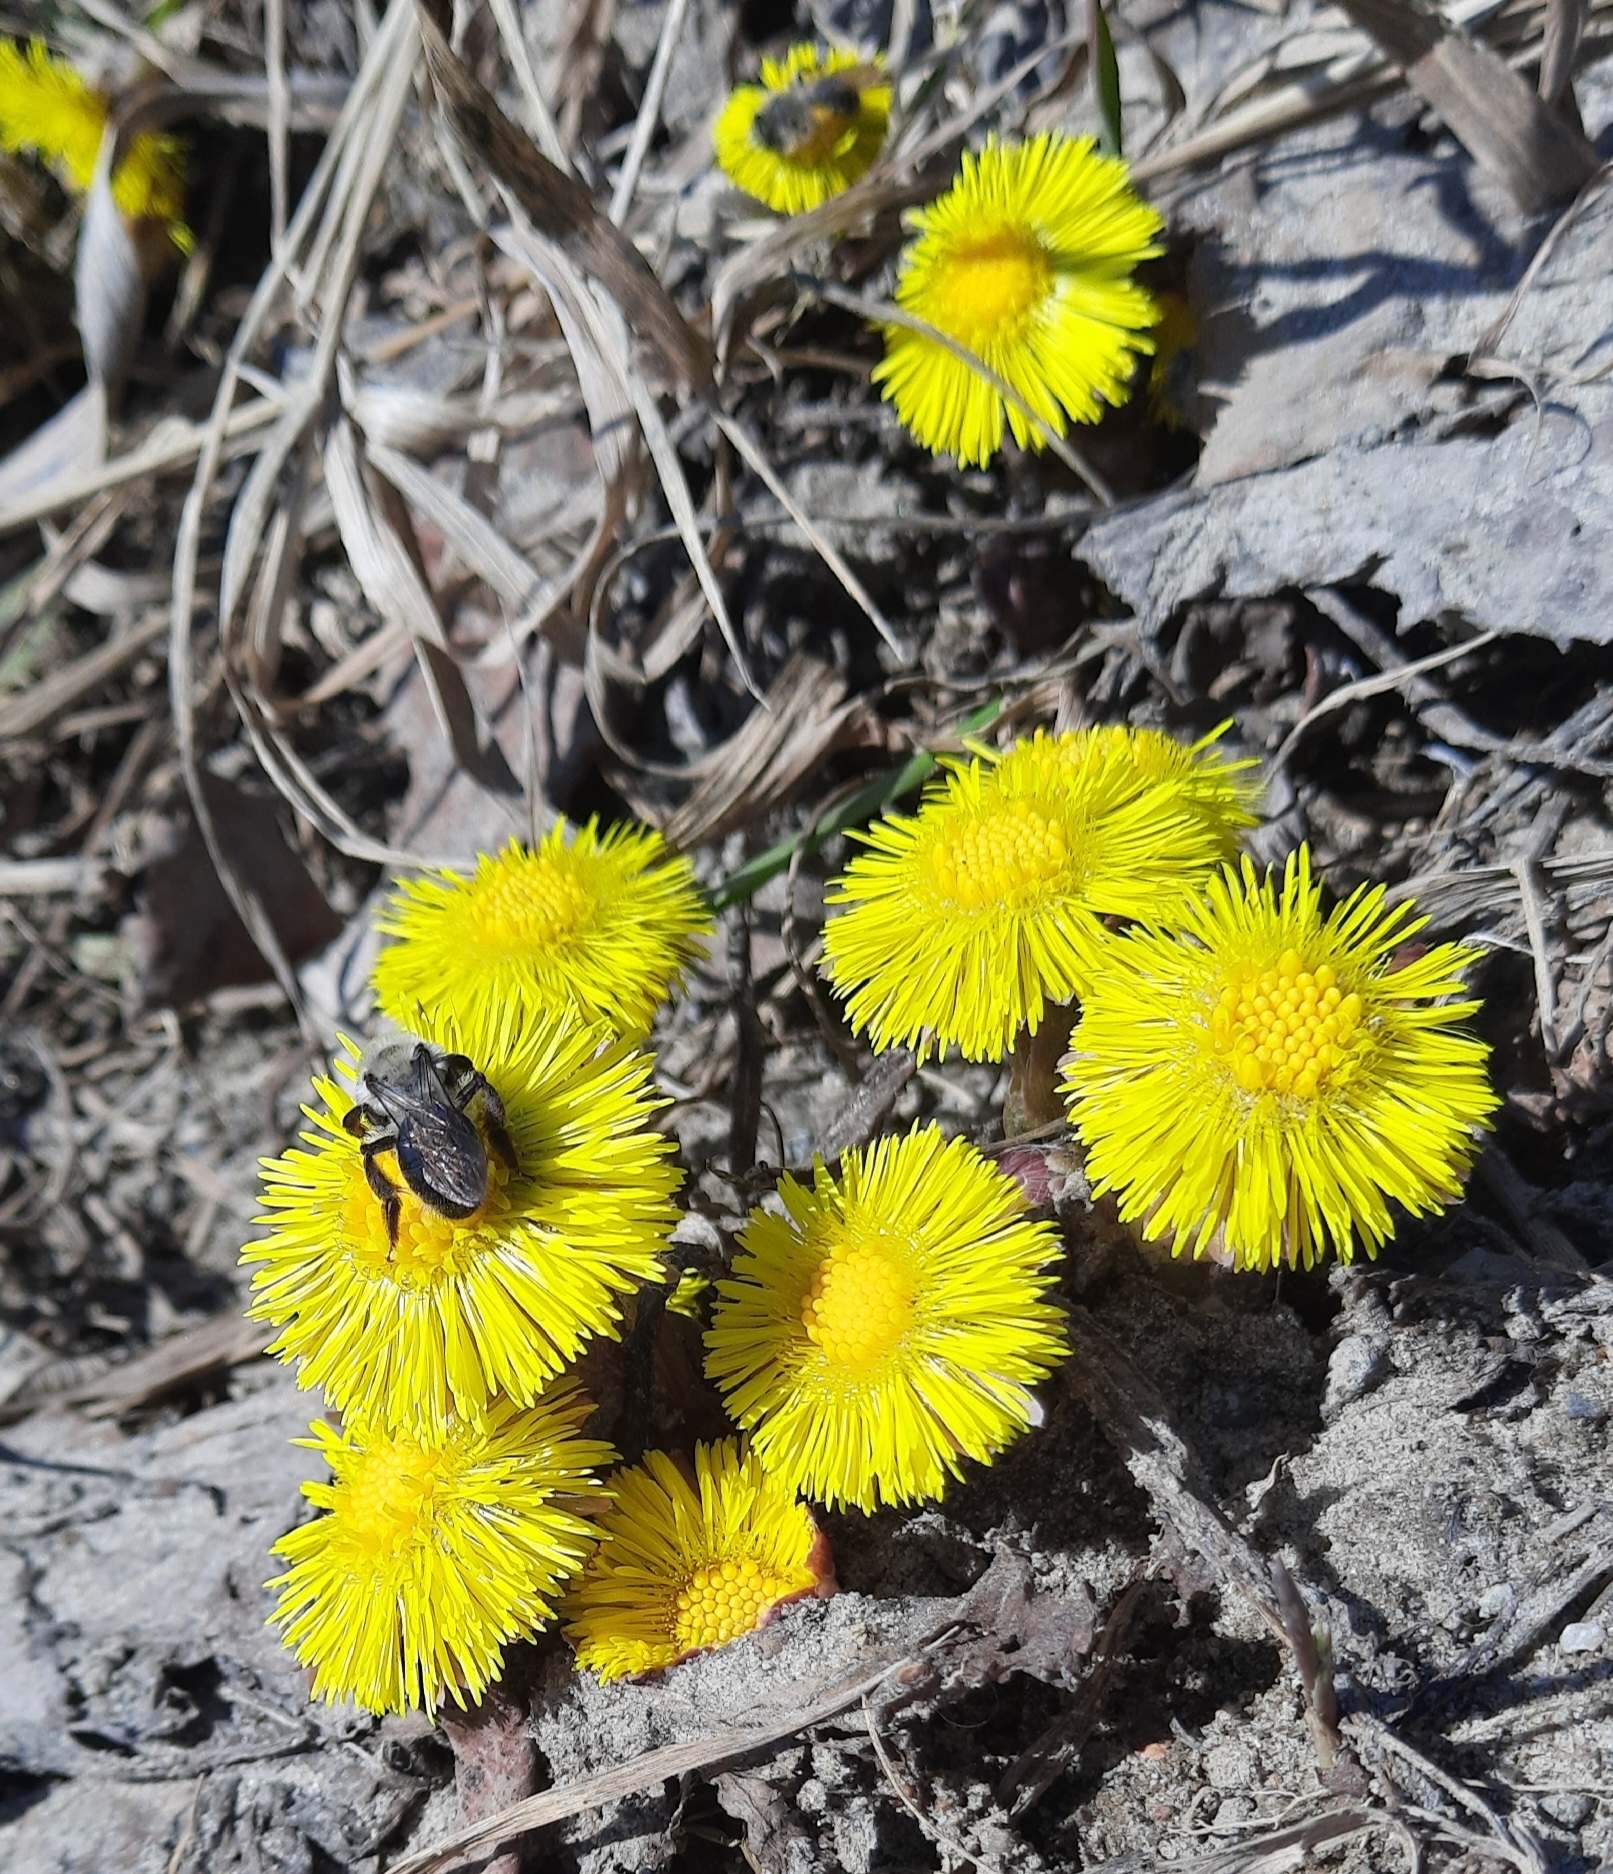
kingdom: Plantae
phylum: Tracheophyta
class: Magnoliopsida
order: Asterales
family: Asteraceae
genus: Tussilago
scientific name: Tussilago farfara
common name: Coltsfoot
